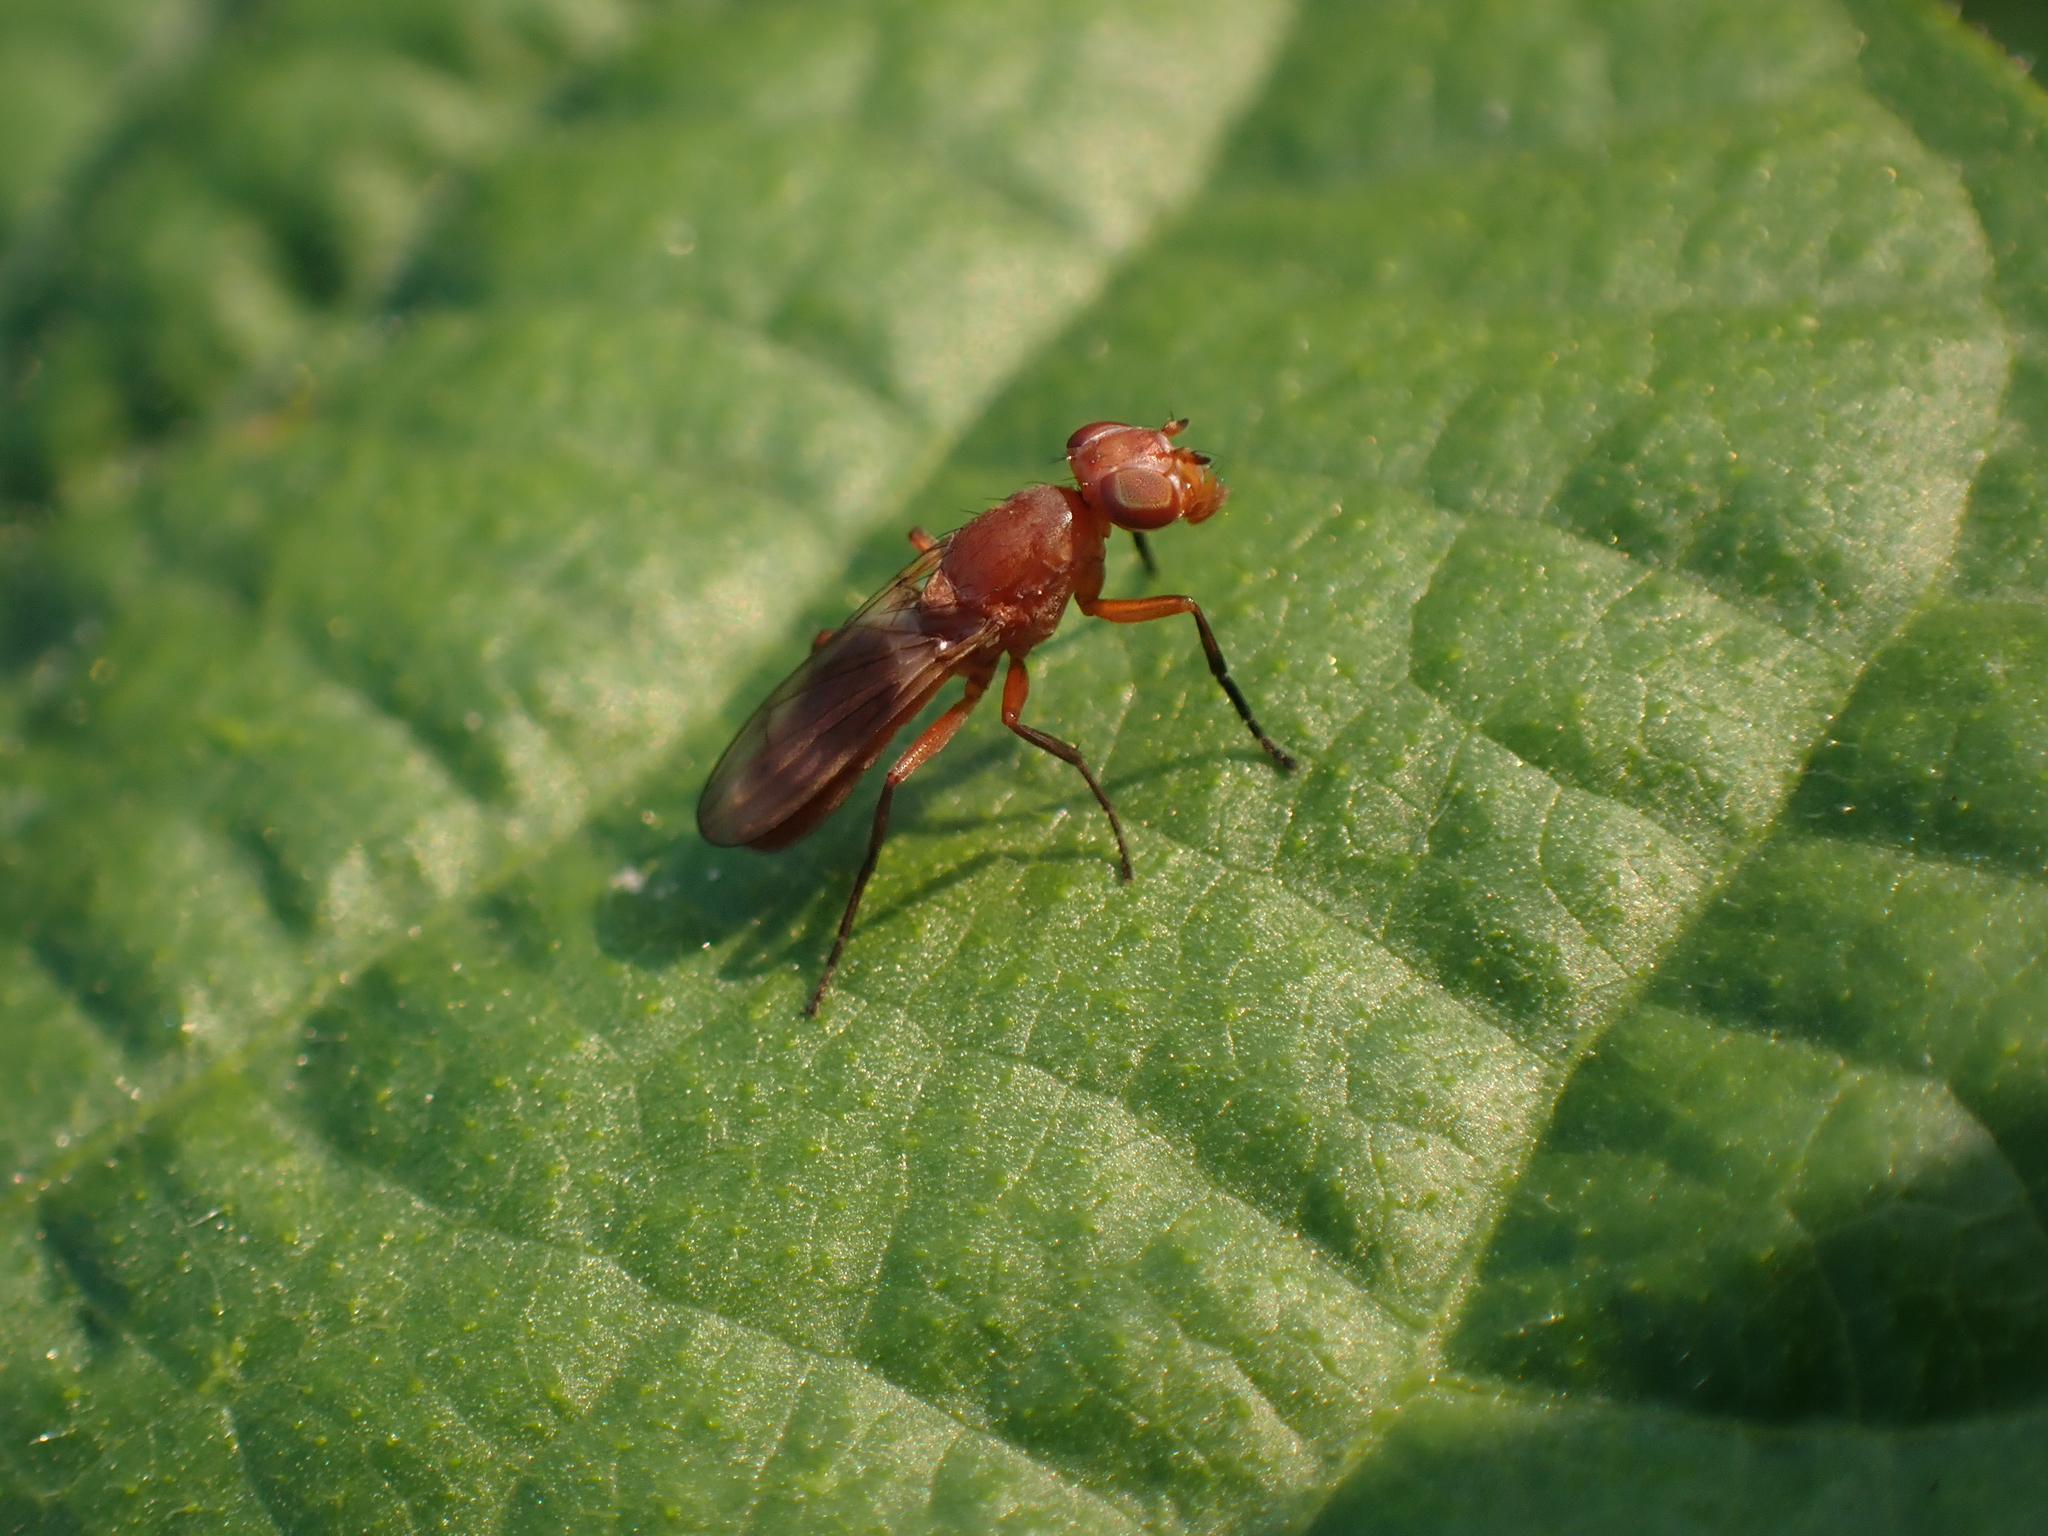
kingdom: Animalia
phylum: Arthropoda
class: Insecta
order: Diptera
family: Ulidiidae
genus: Zacompsia
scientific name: Zacompsia fulva
